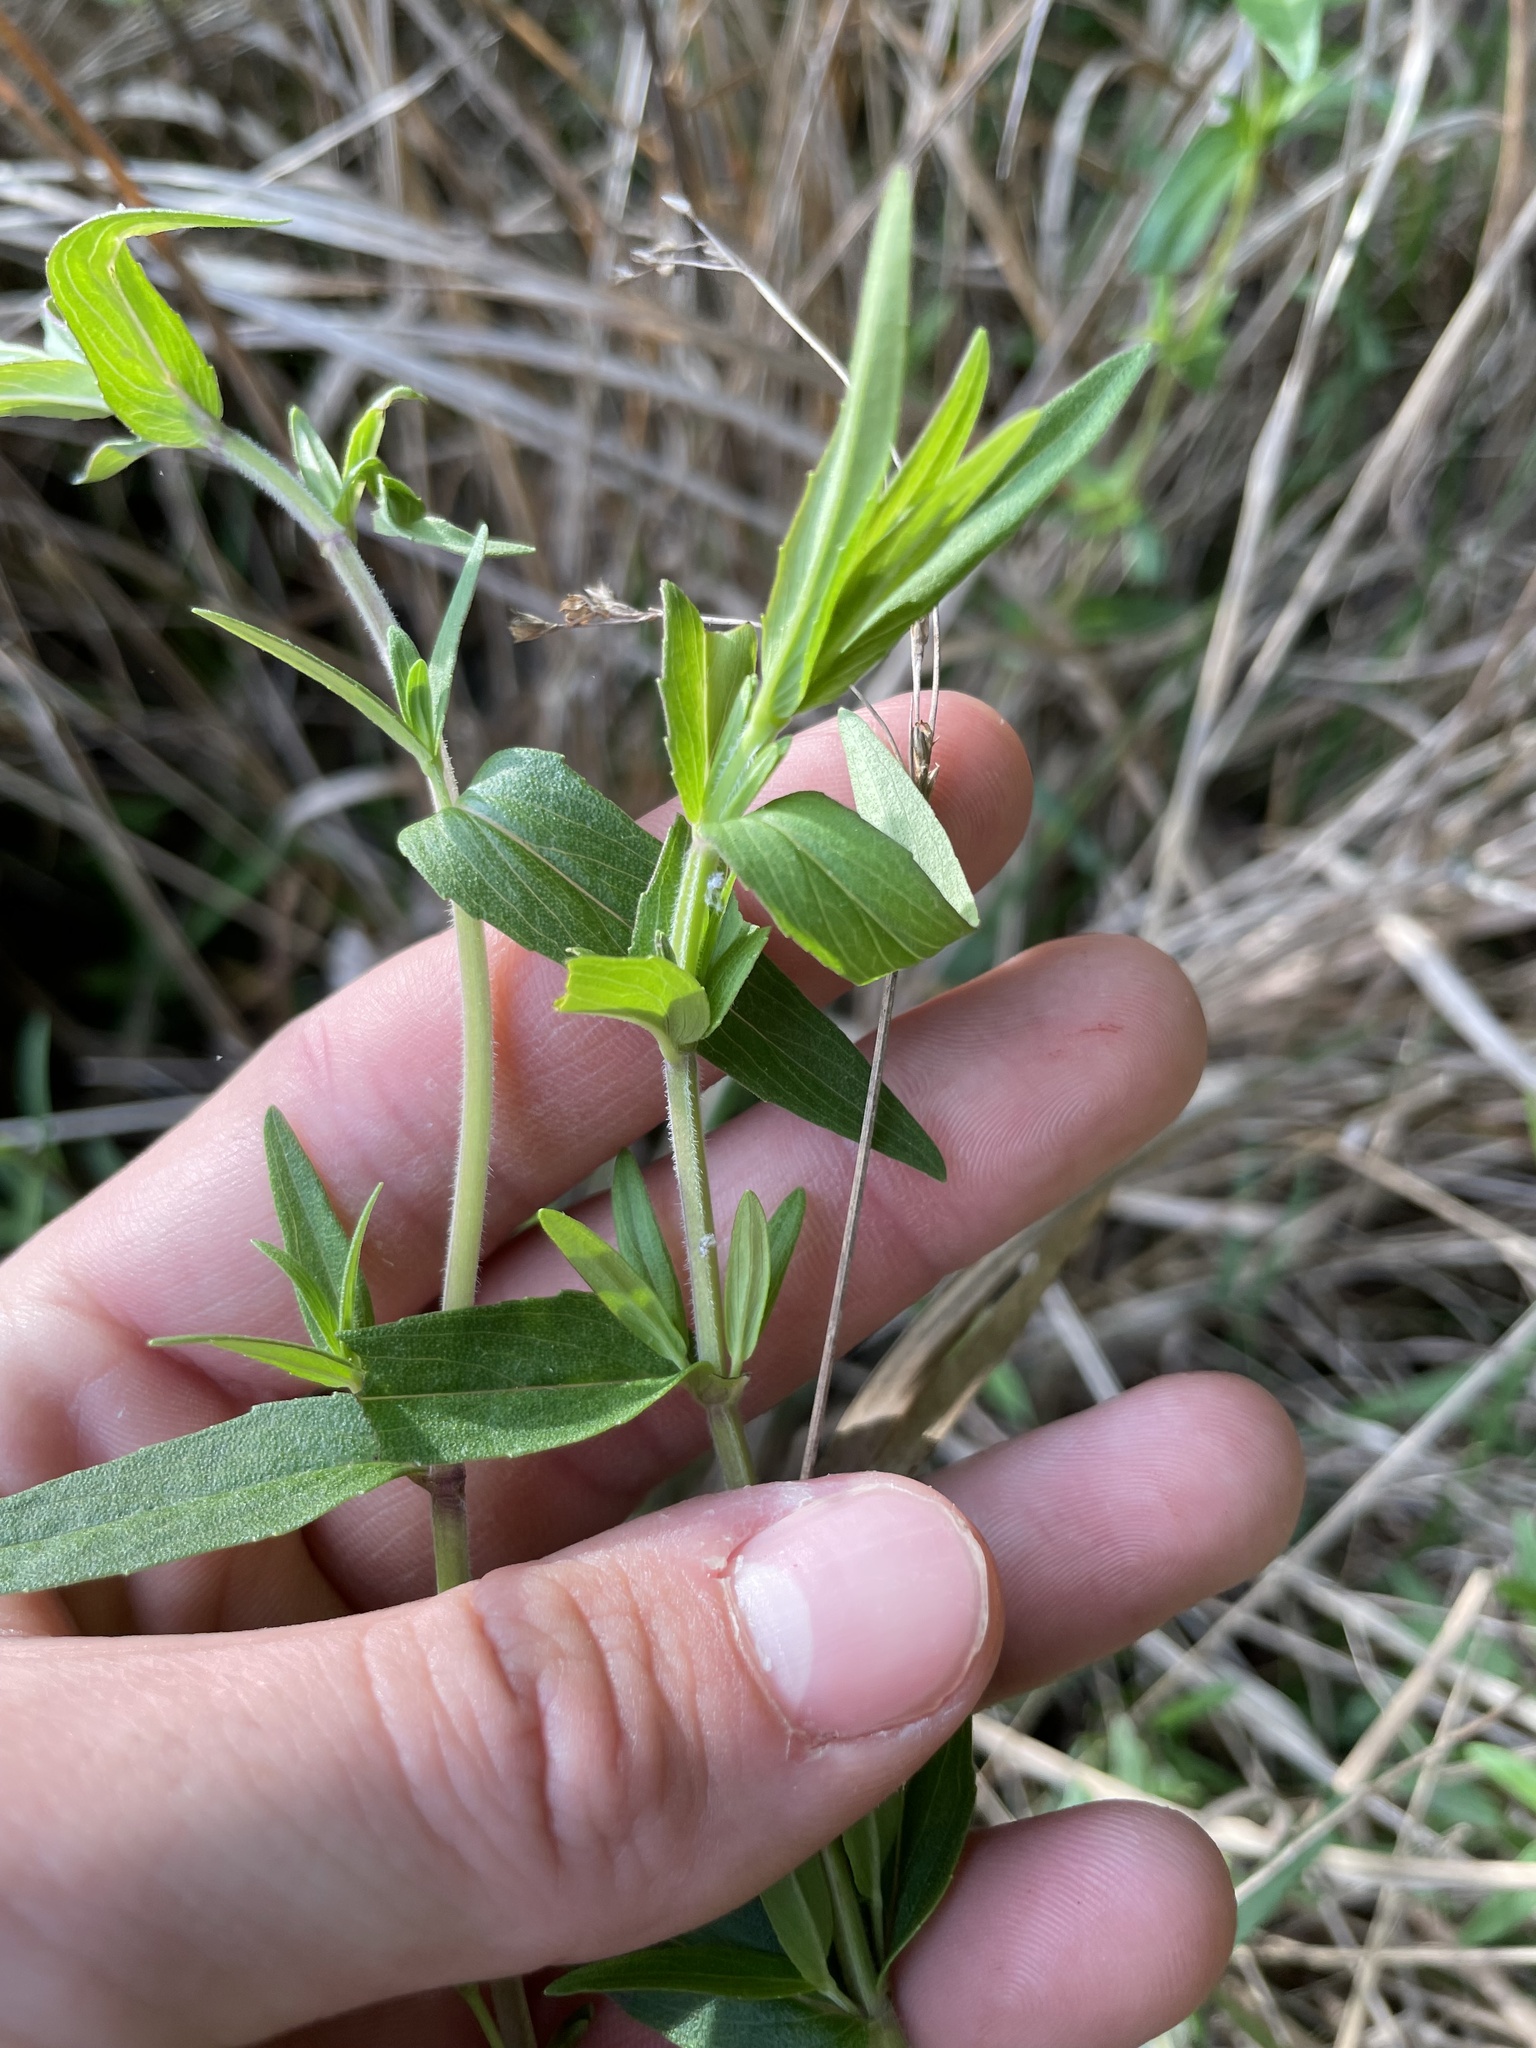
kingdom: Plantae
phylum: Tracheophyta
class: Magnoliopsida
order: Lamiales
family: Lamiaceae
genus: Pycnanthemum
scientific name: Pycnanthemum verticillatum
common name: Whorled mountain-mint
